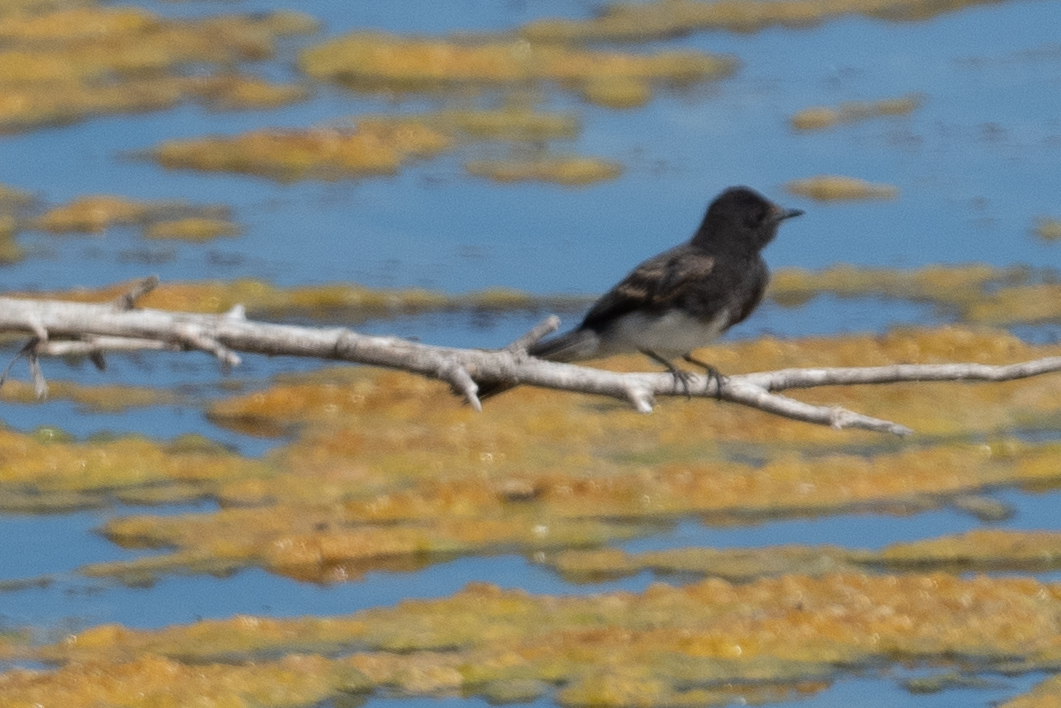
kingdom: Animalia
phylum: Chordata
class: Aves
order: Passeriformes
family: Tyrannidae
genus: Sayornis
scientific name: Sayornis nigricans
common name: Black phoebe
